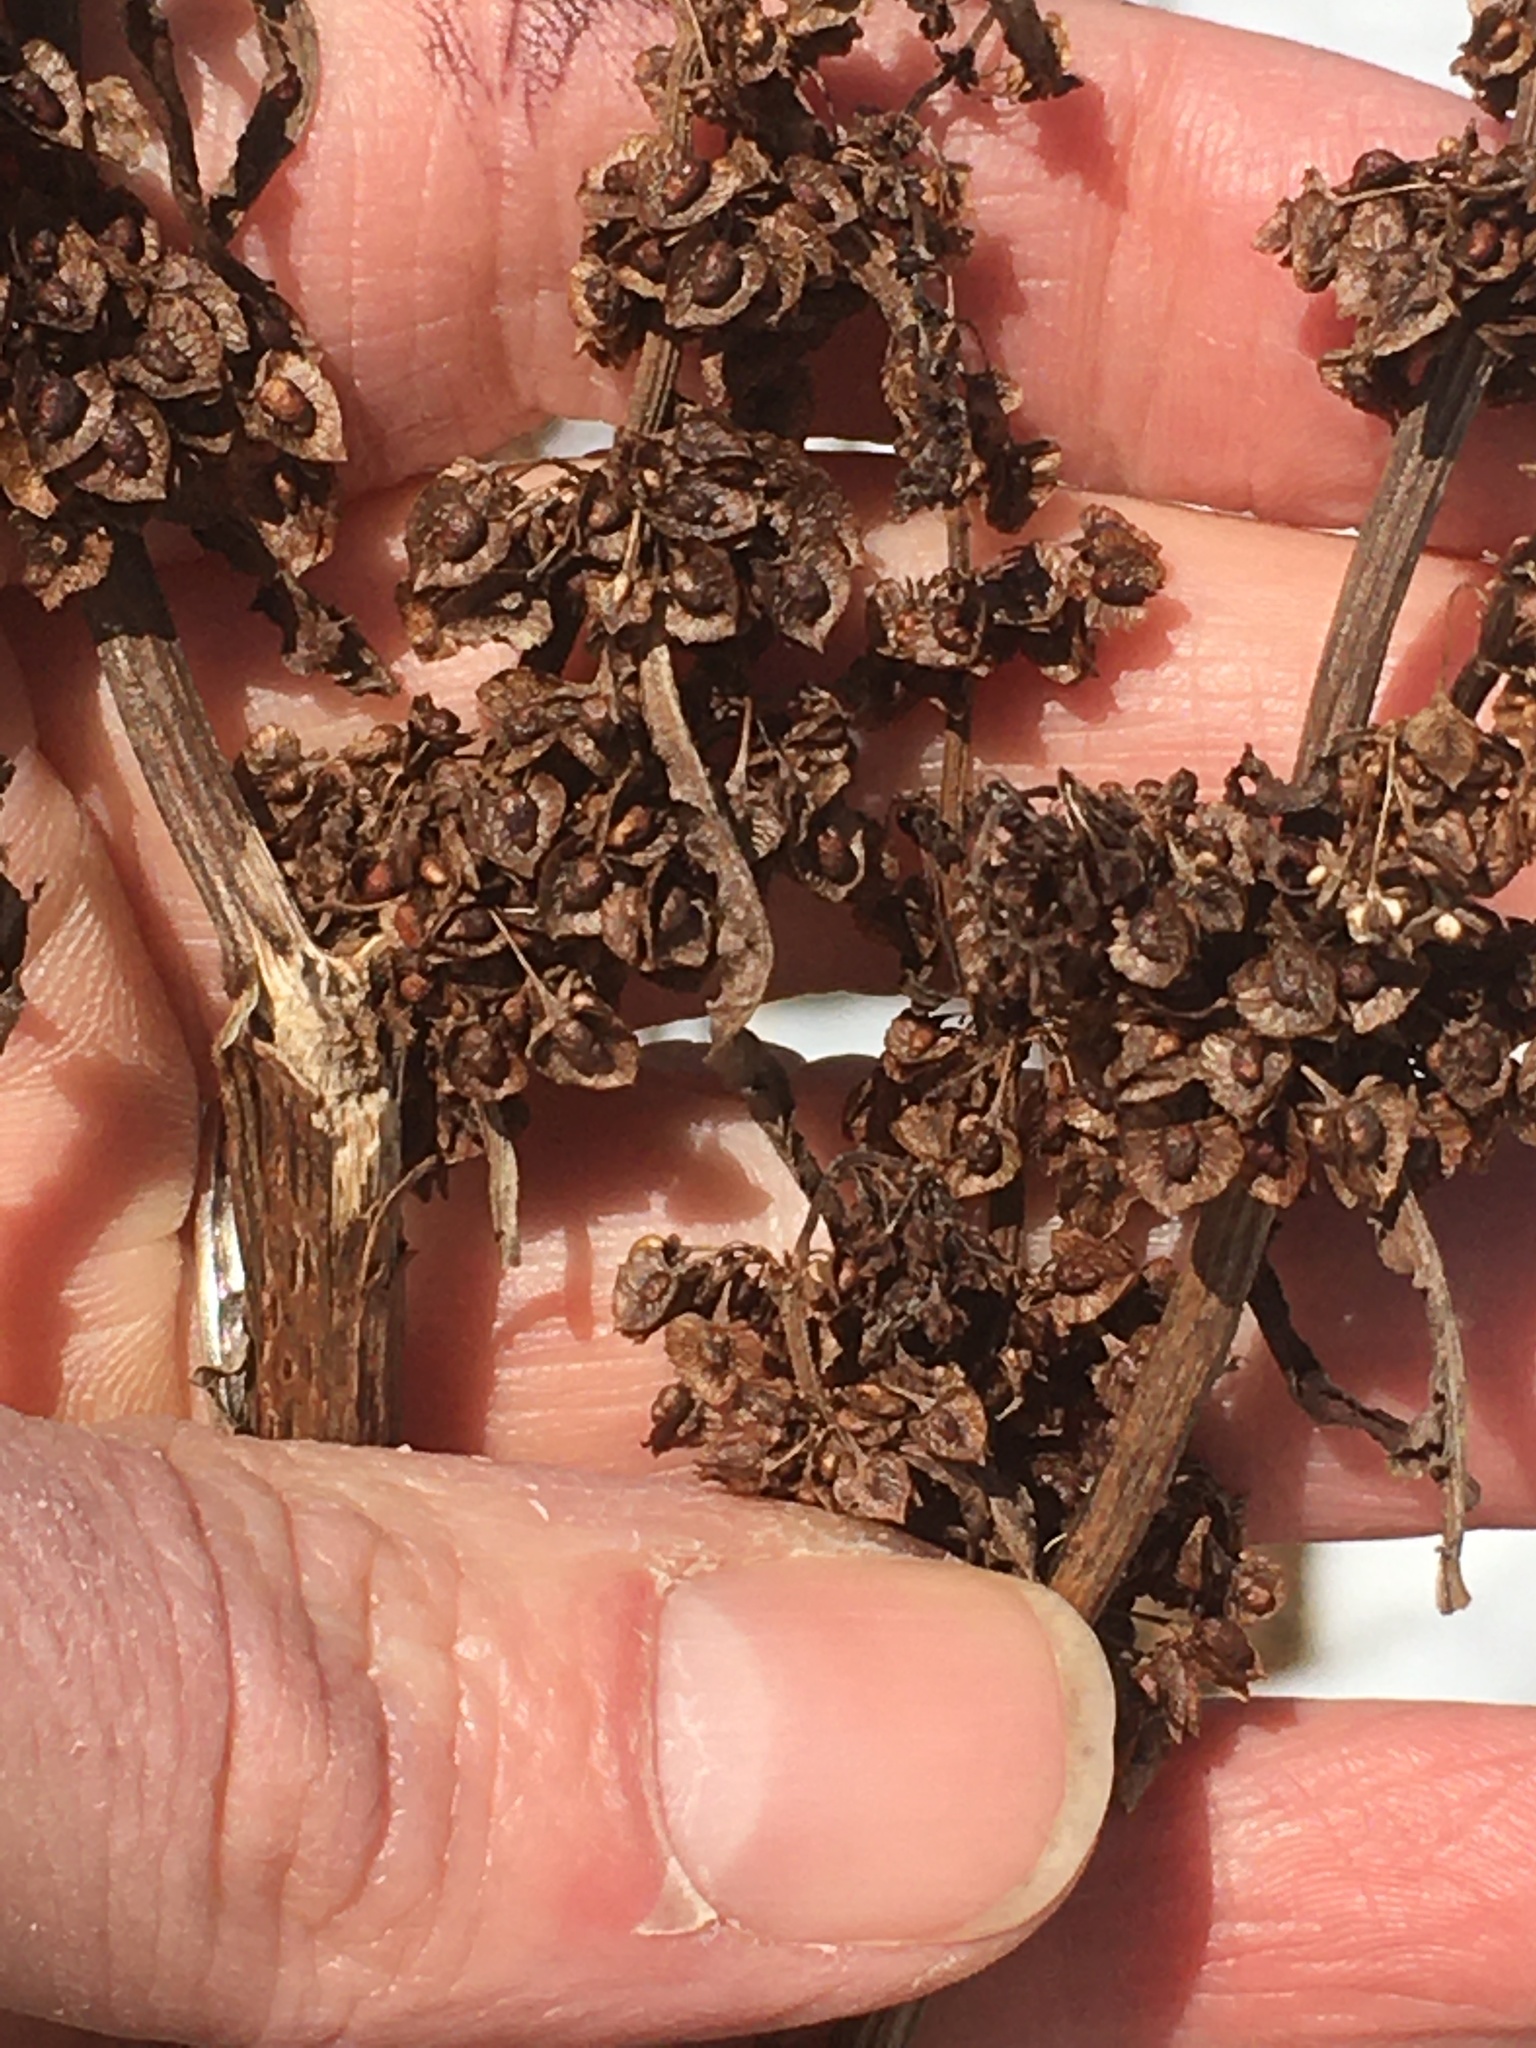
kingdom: Plantae
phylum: Tracheophyta
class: Magnoliopsida
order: Caryophyllales
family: Polygonaceae
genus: Rumex
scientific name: Rumex crispus
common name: Curled dock
